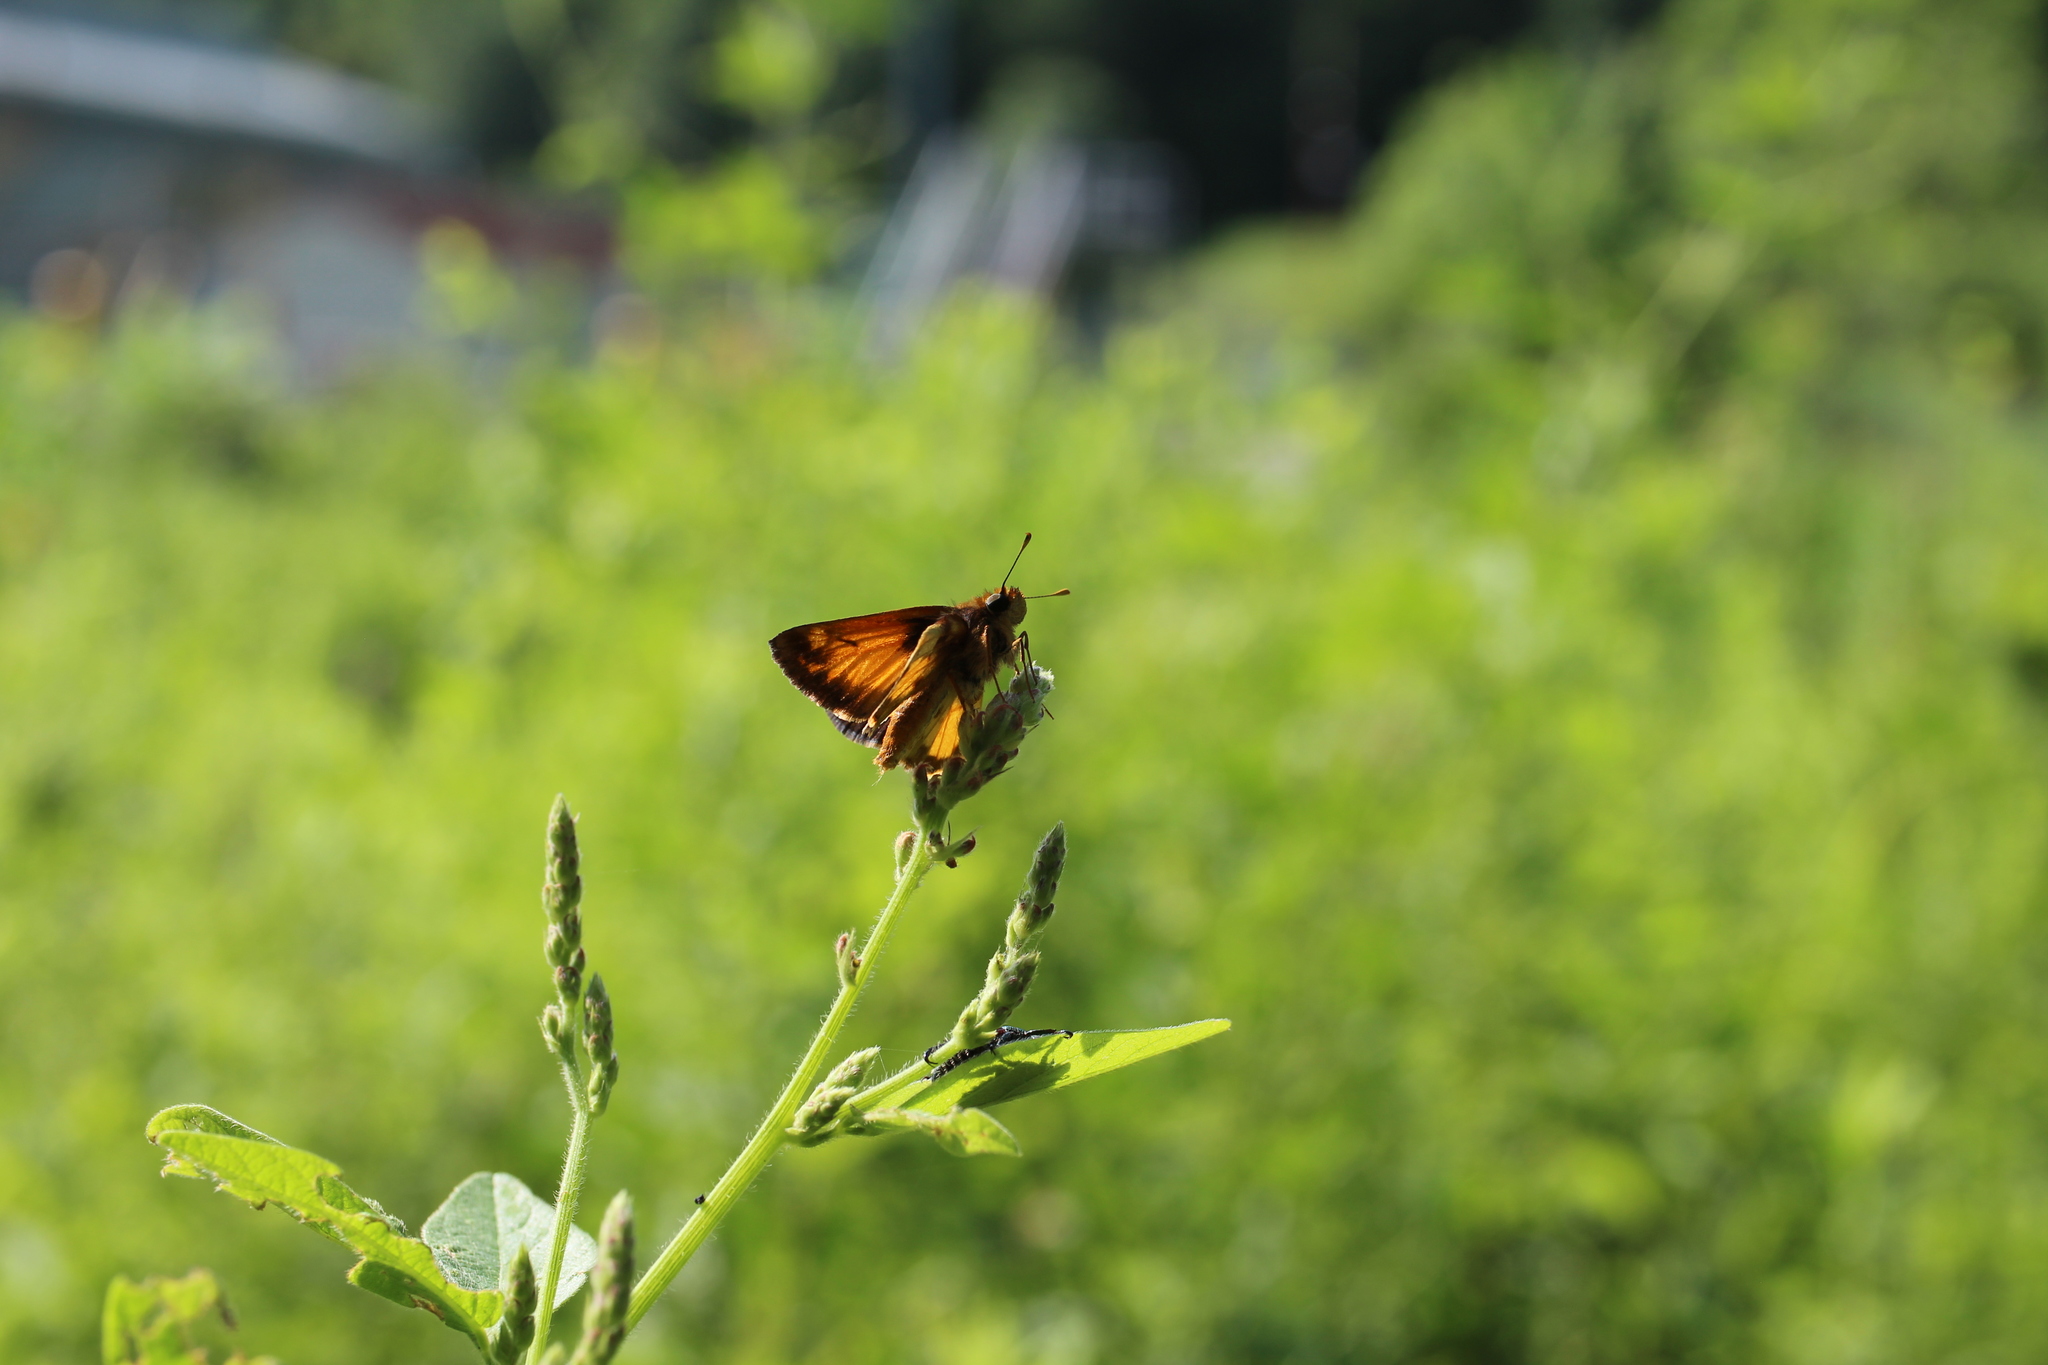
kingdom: Animalia
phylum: Arthropoda
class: Insecta
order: Lepidoptera
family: Hesperiidae
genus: Lon
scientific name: Lon zabulon
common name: Zabulon skipper
